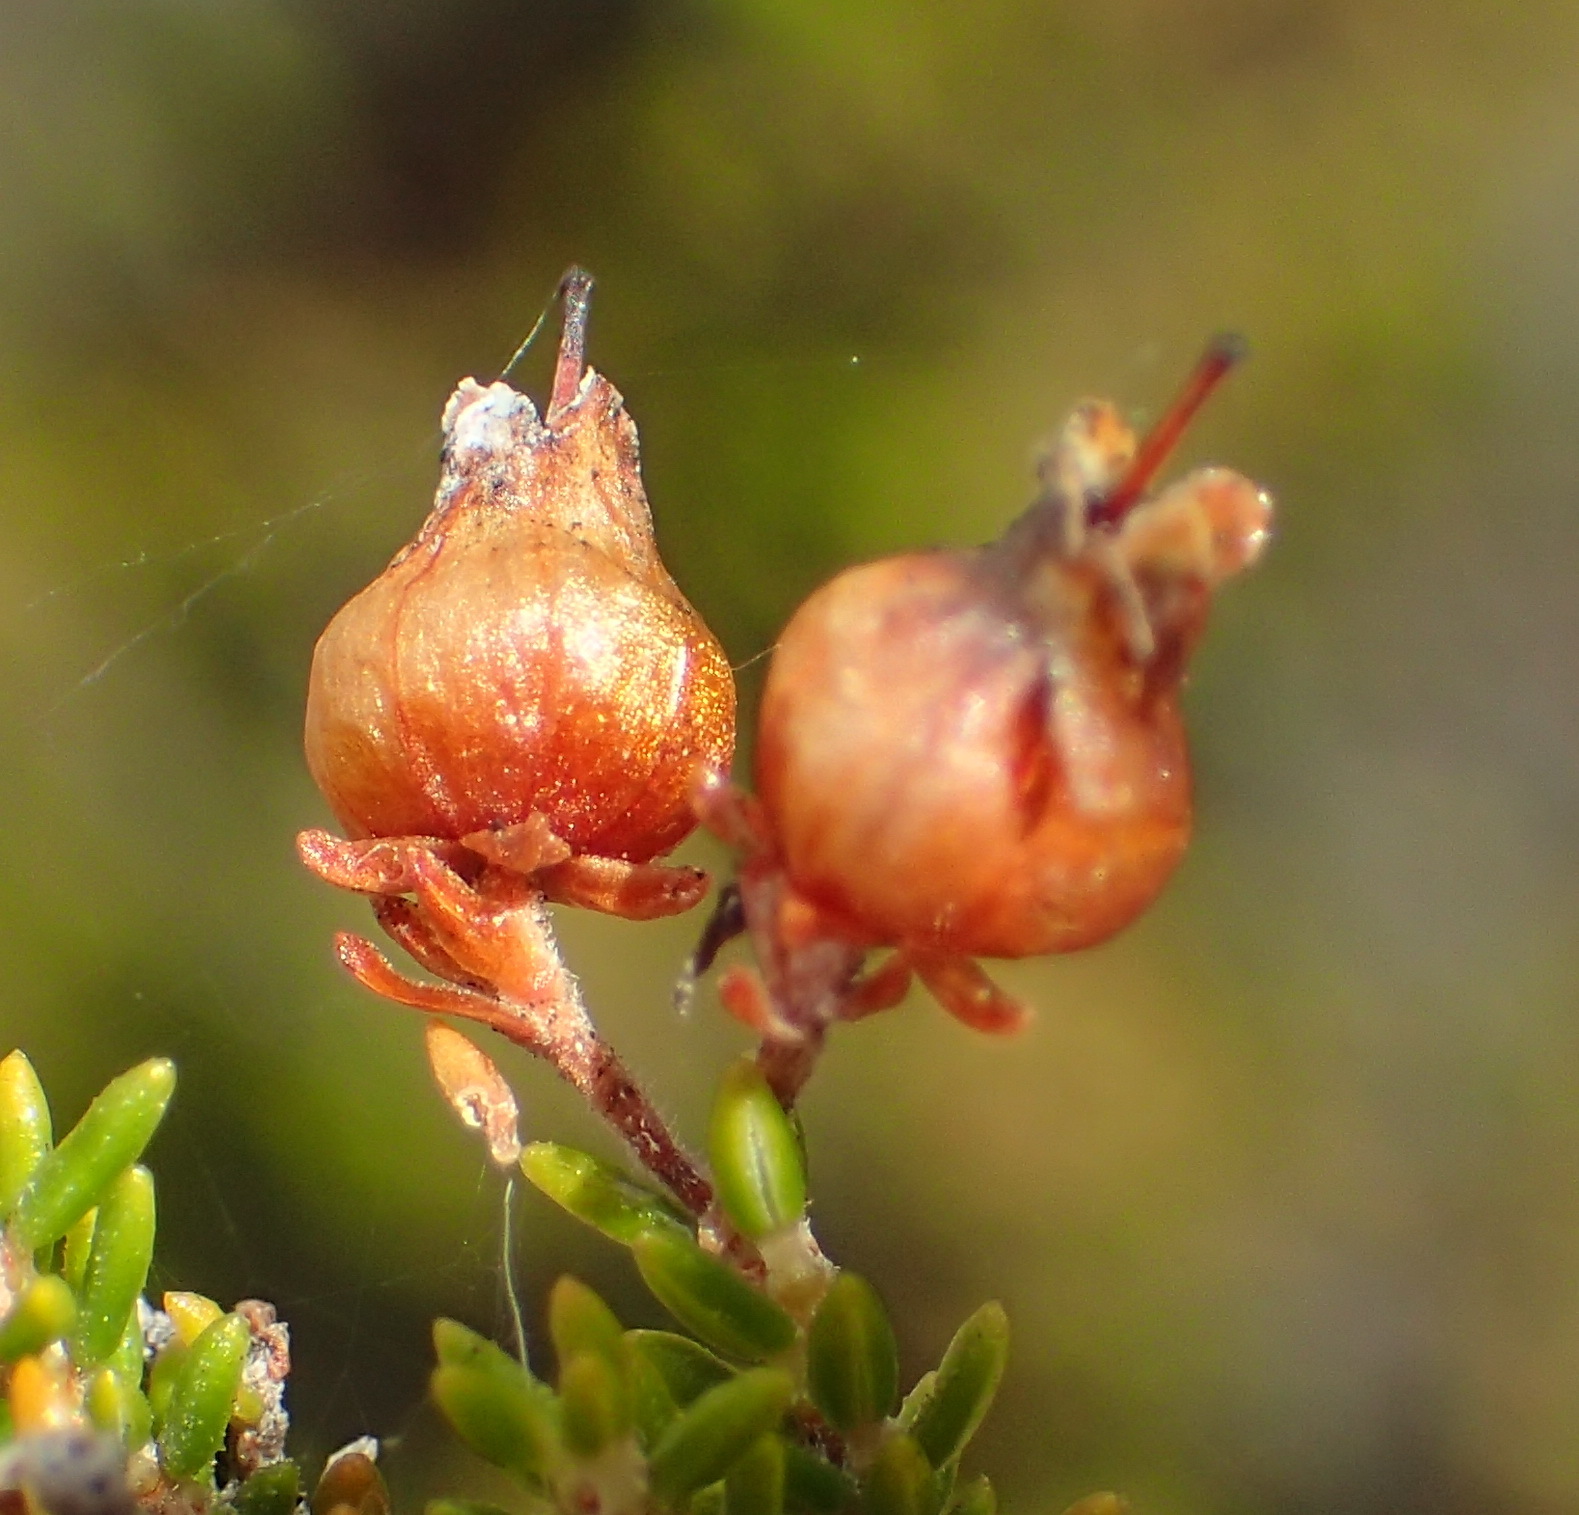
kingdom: Plantae
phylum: Tracheophyta
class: Magnoliopsida
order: Ericales
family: Ericaceae
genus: Erica
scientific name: Erica glomiflora
